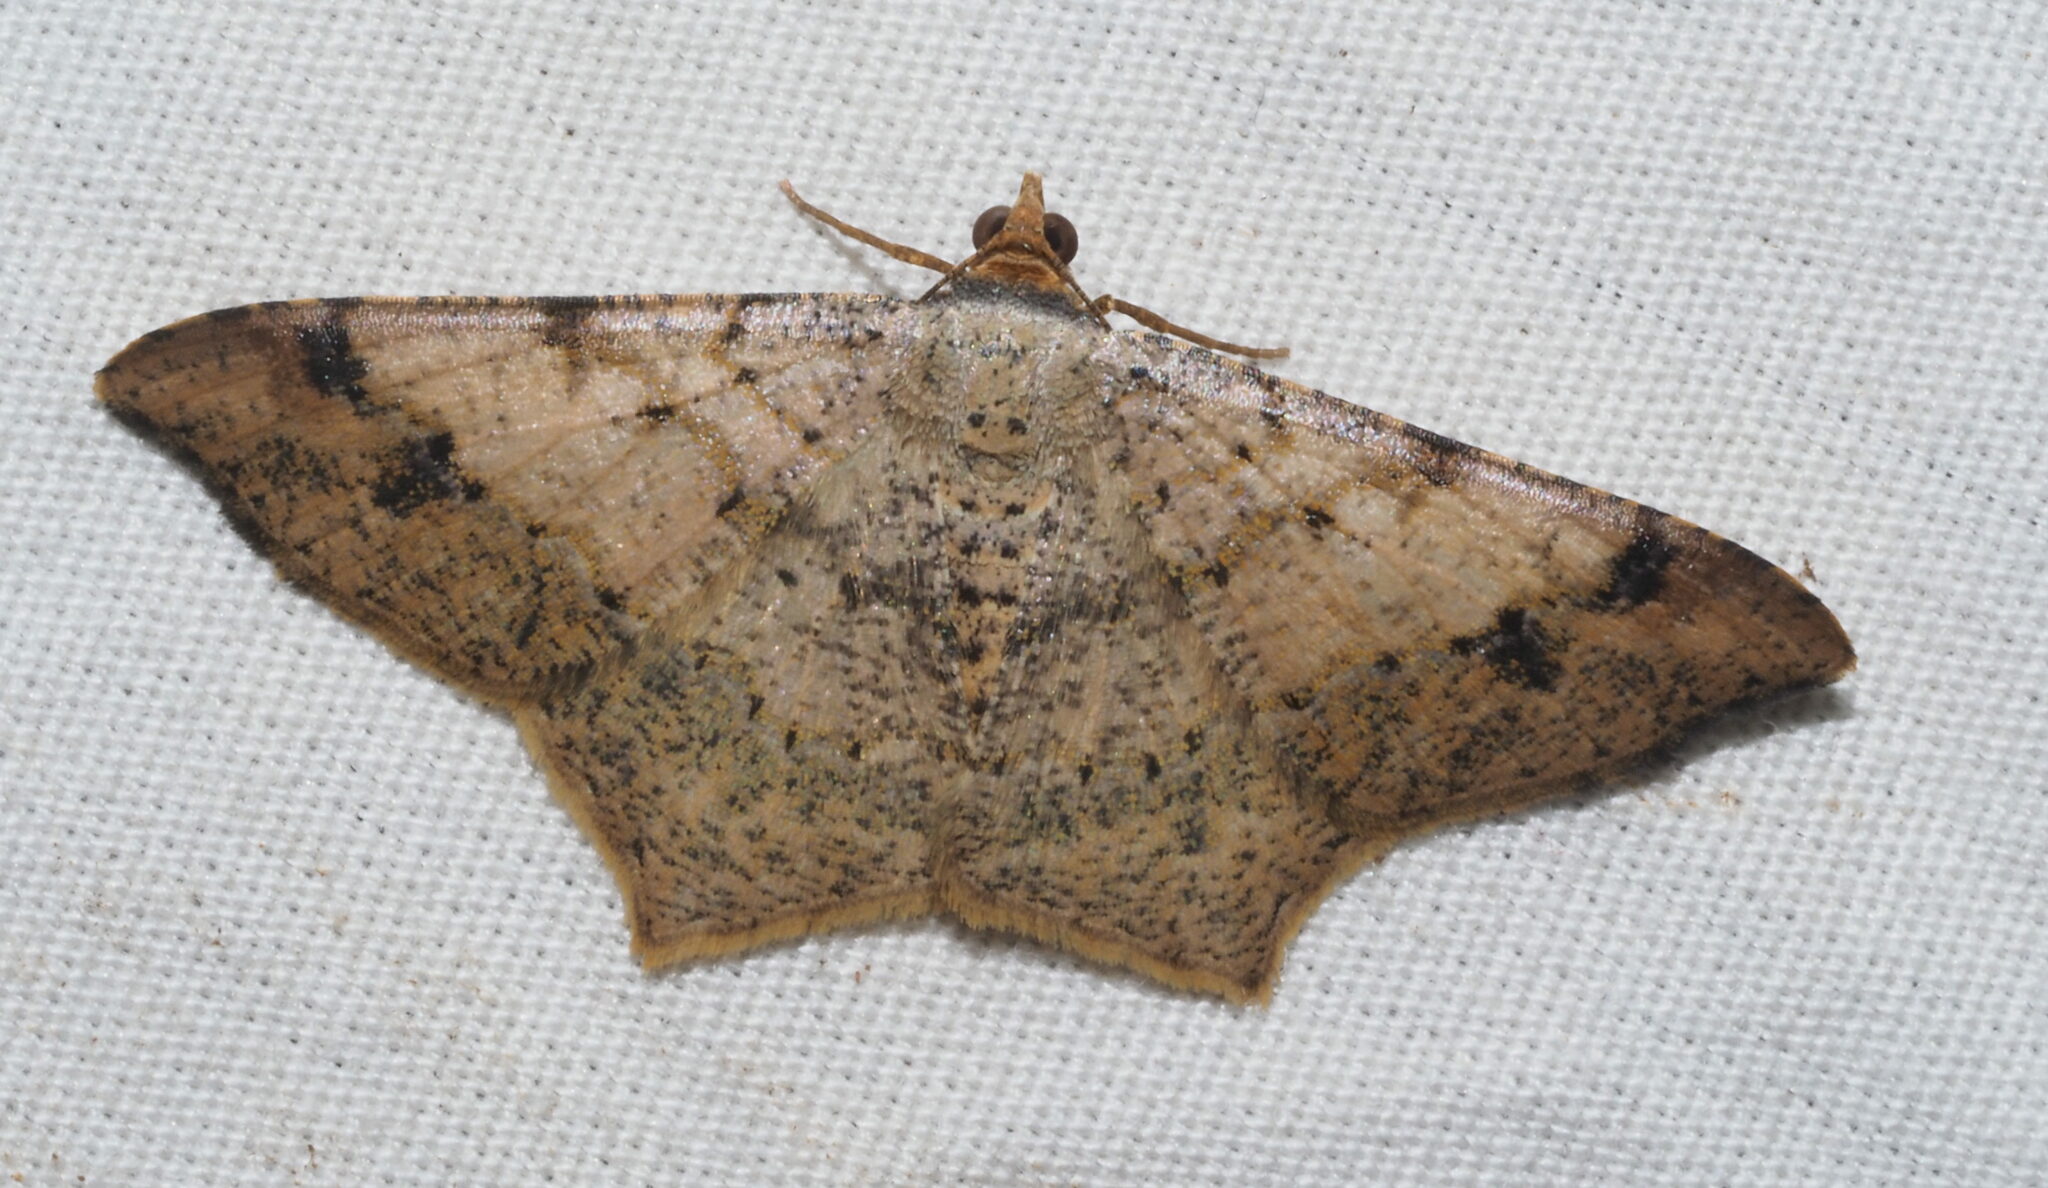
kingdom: Animalia
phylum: Arthropoda
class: Insecta
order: Lepidoptera
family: Geometridae
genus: Macaria
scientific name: Macaria abydata
